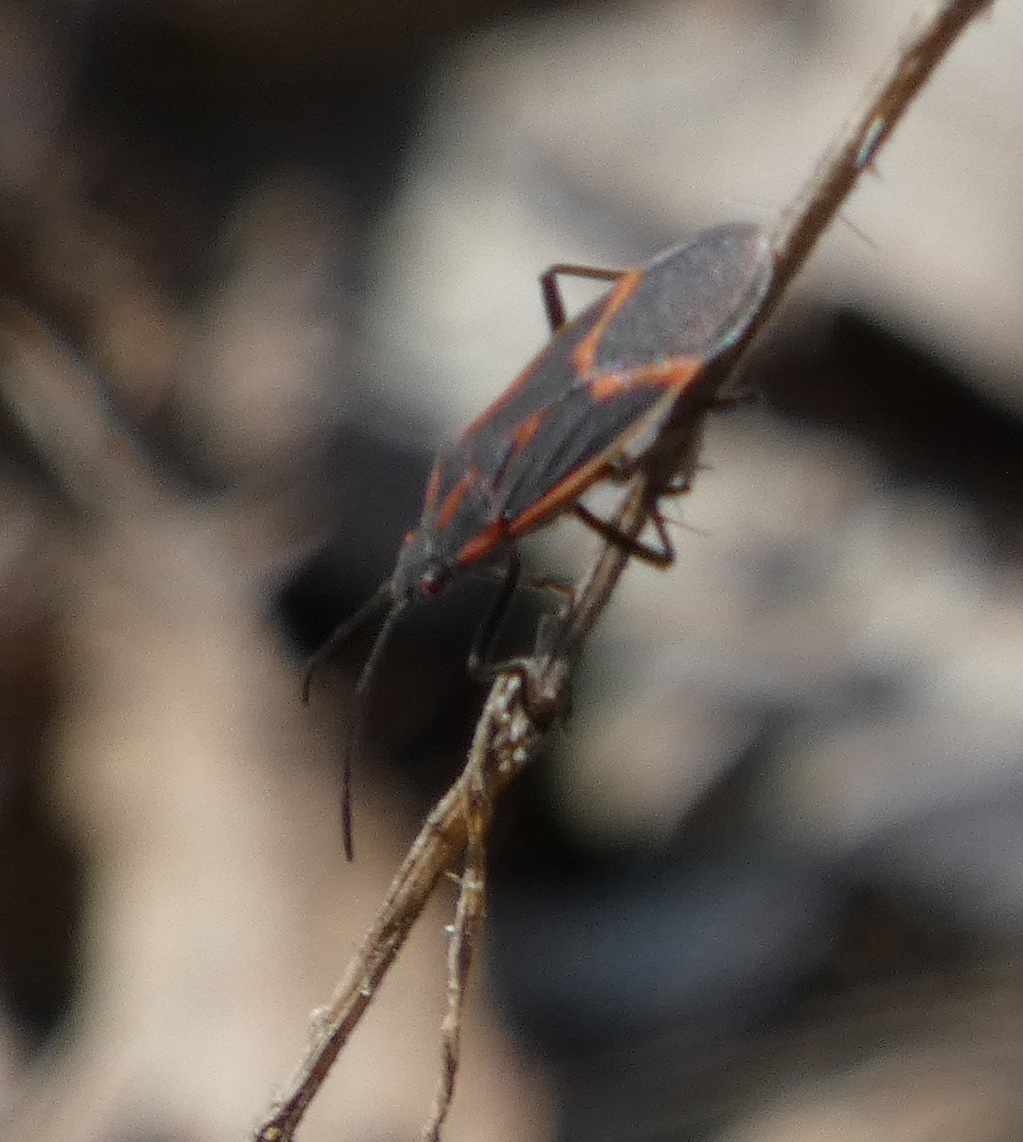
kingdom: Animalia
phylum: Arthropoda
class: Insecta
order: Hemiptera
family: Rhopalidae
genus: Boisea
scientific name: Boisea trivittata
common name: Boxelder bug
